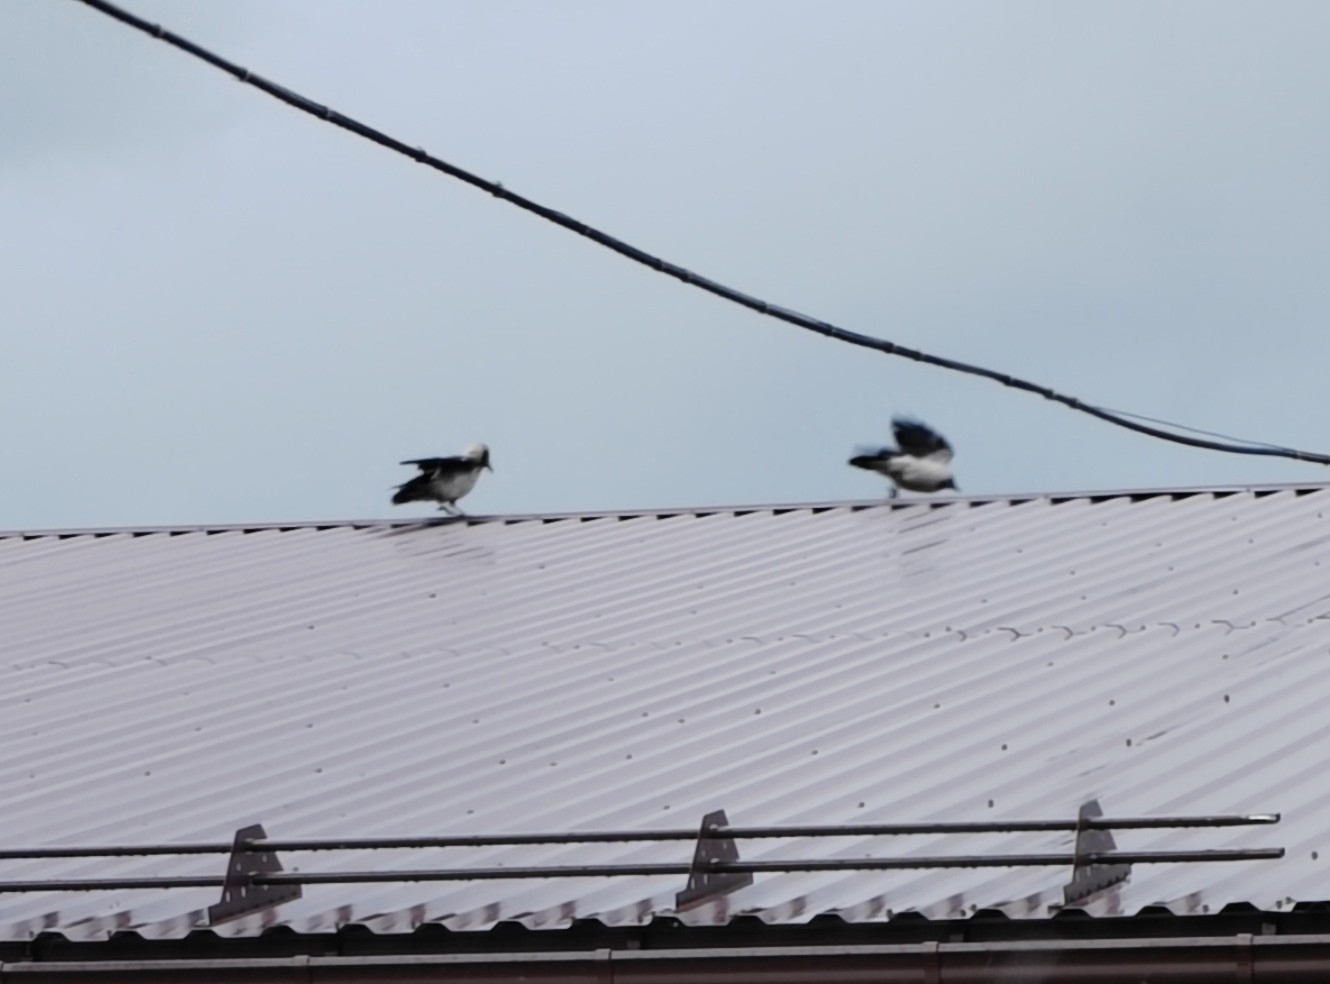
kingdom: Animalia
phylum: Chordata
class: Aves
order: Passeriformes
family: Corvidae
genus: Corvus
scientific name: Corvus cornix
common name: Hooded crow
